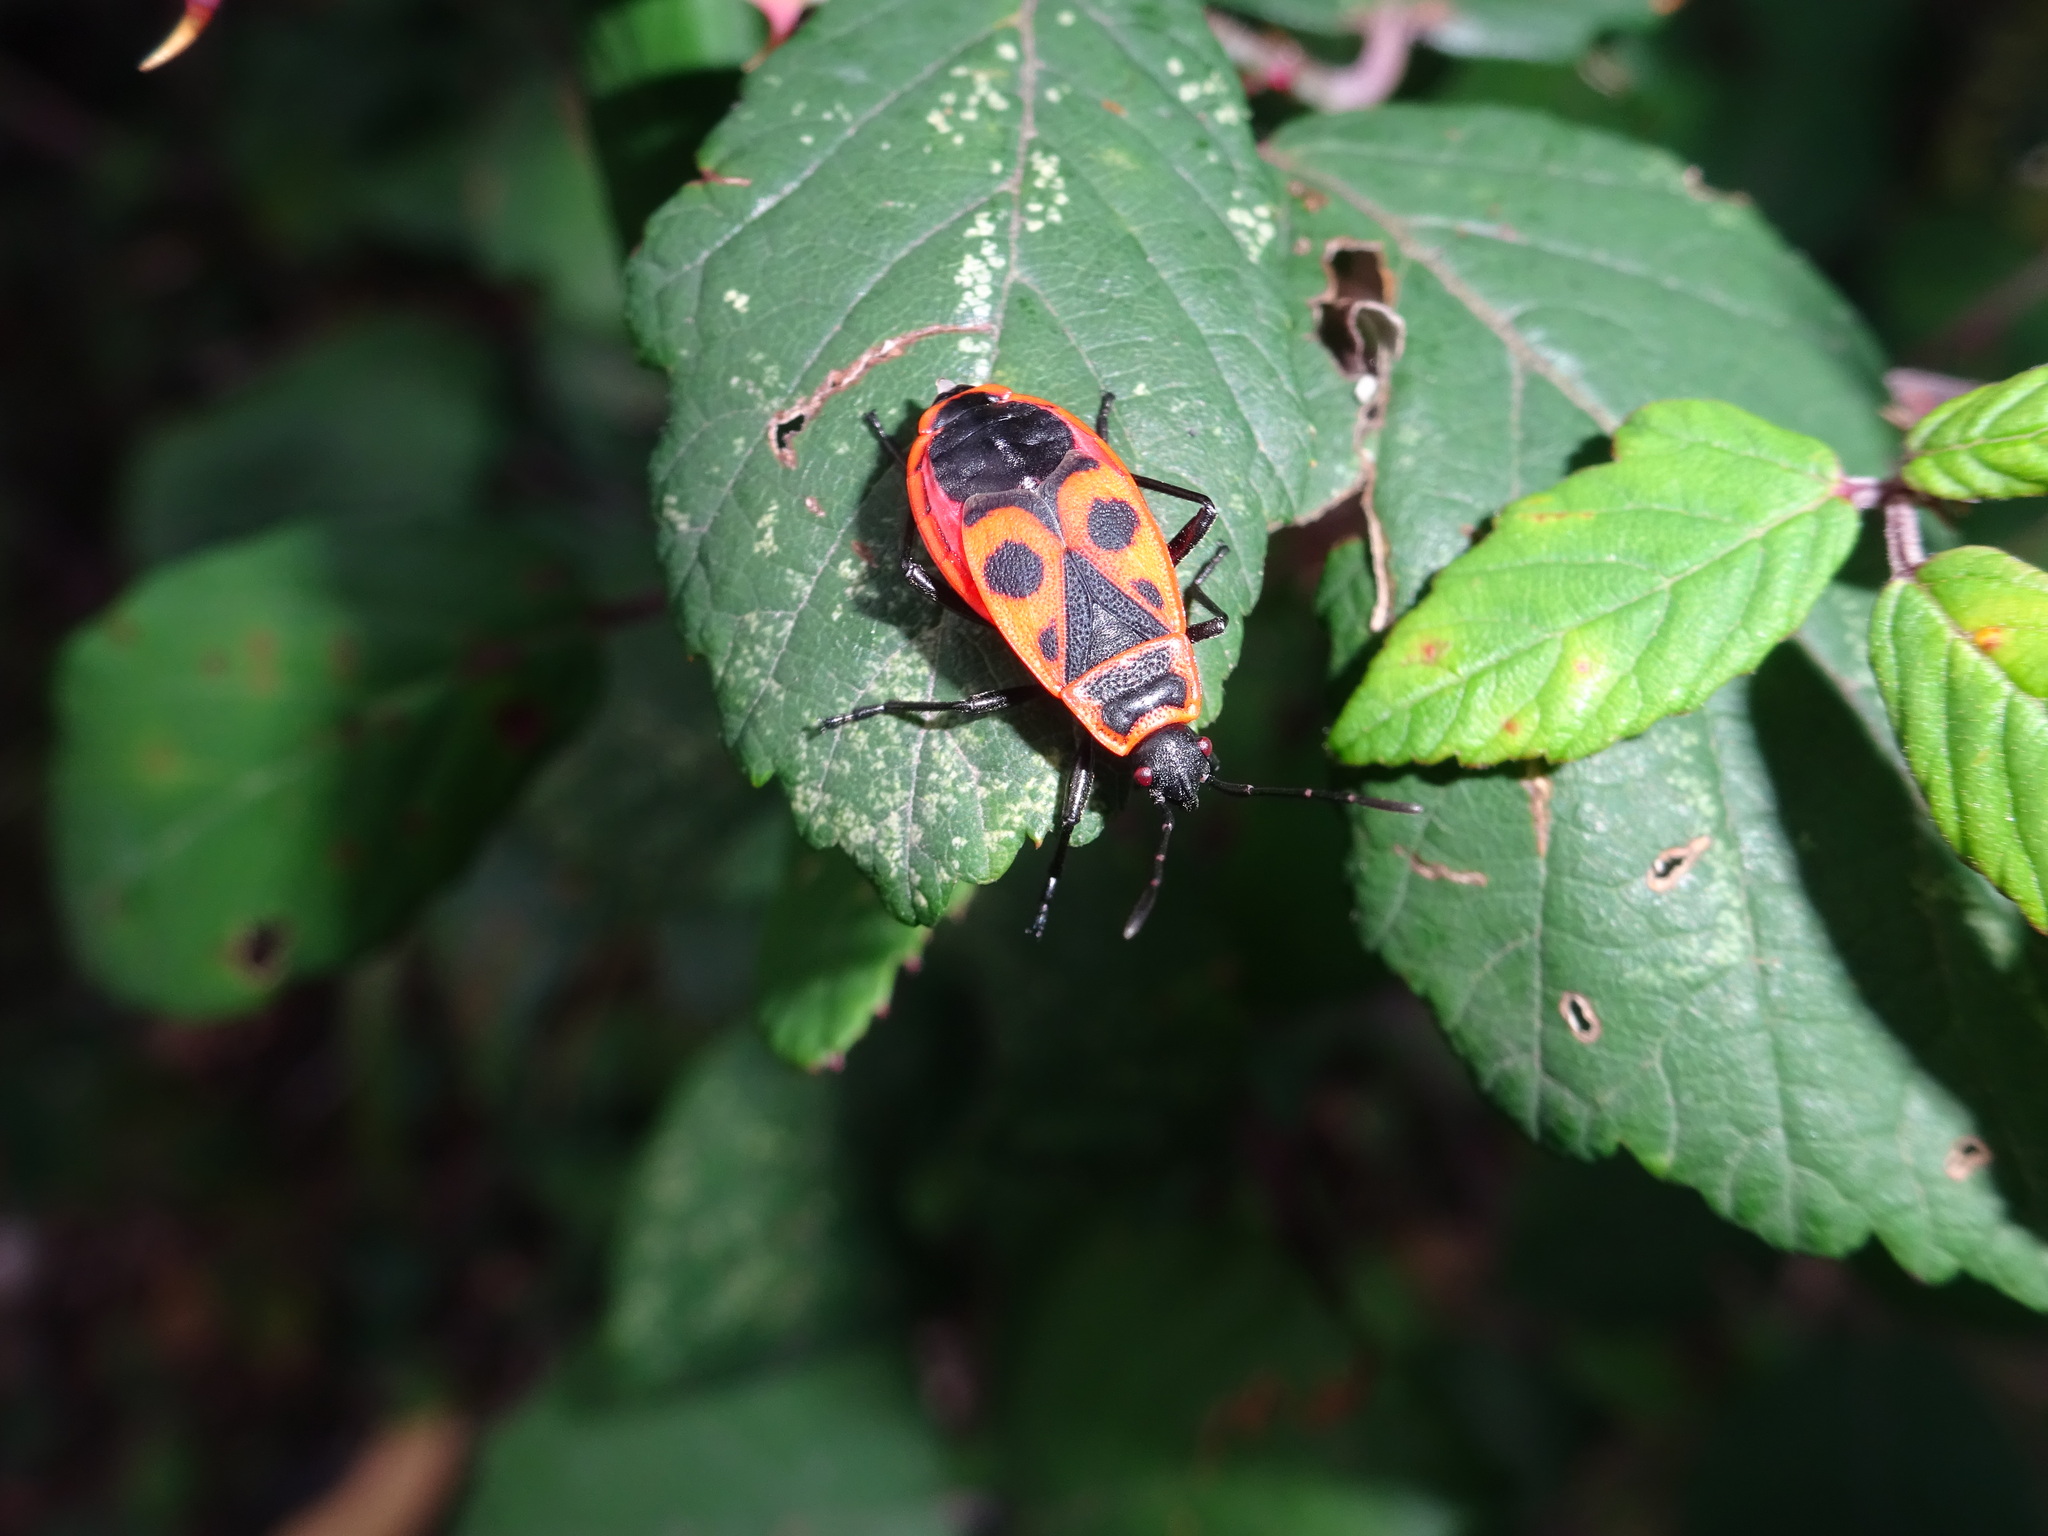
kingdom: Animalia
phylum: Arthropoda
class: Insecta
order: Hemiptera
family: Pyrrhocoridae
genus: Pyrrhocoris
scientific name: Pyrrhocoris apterus
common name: Firebug
